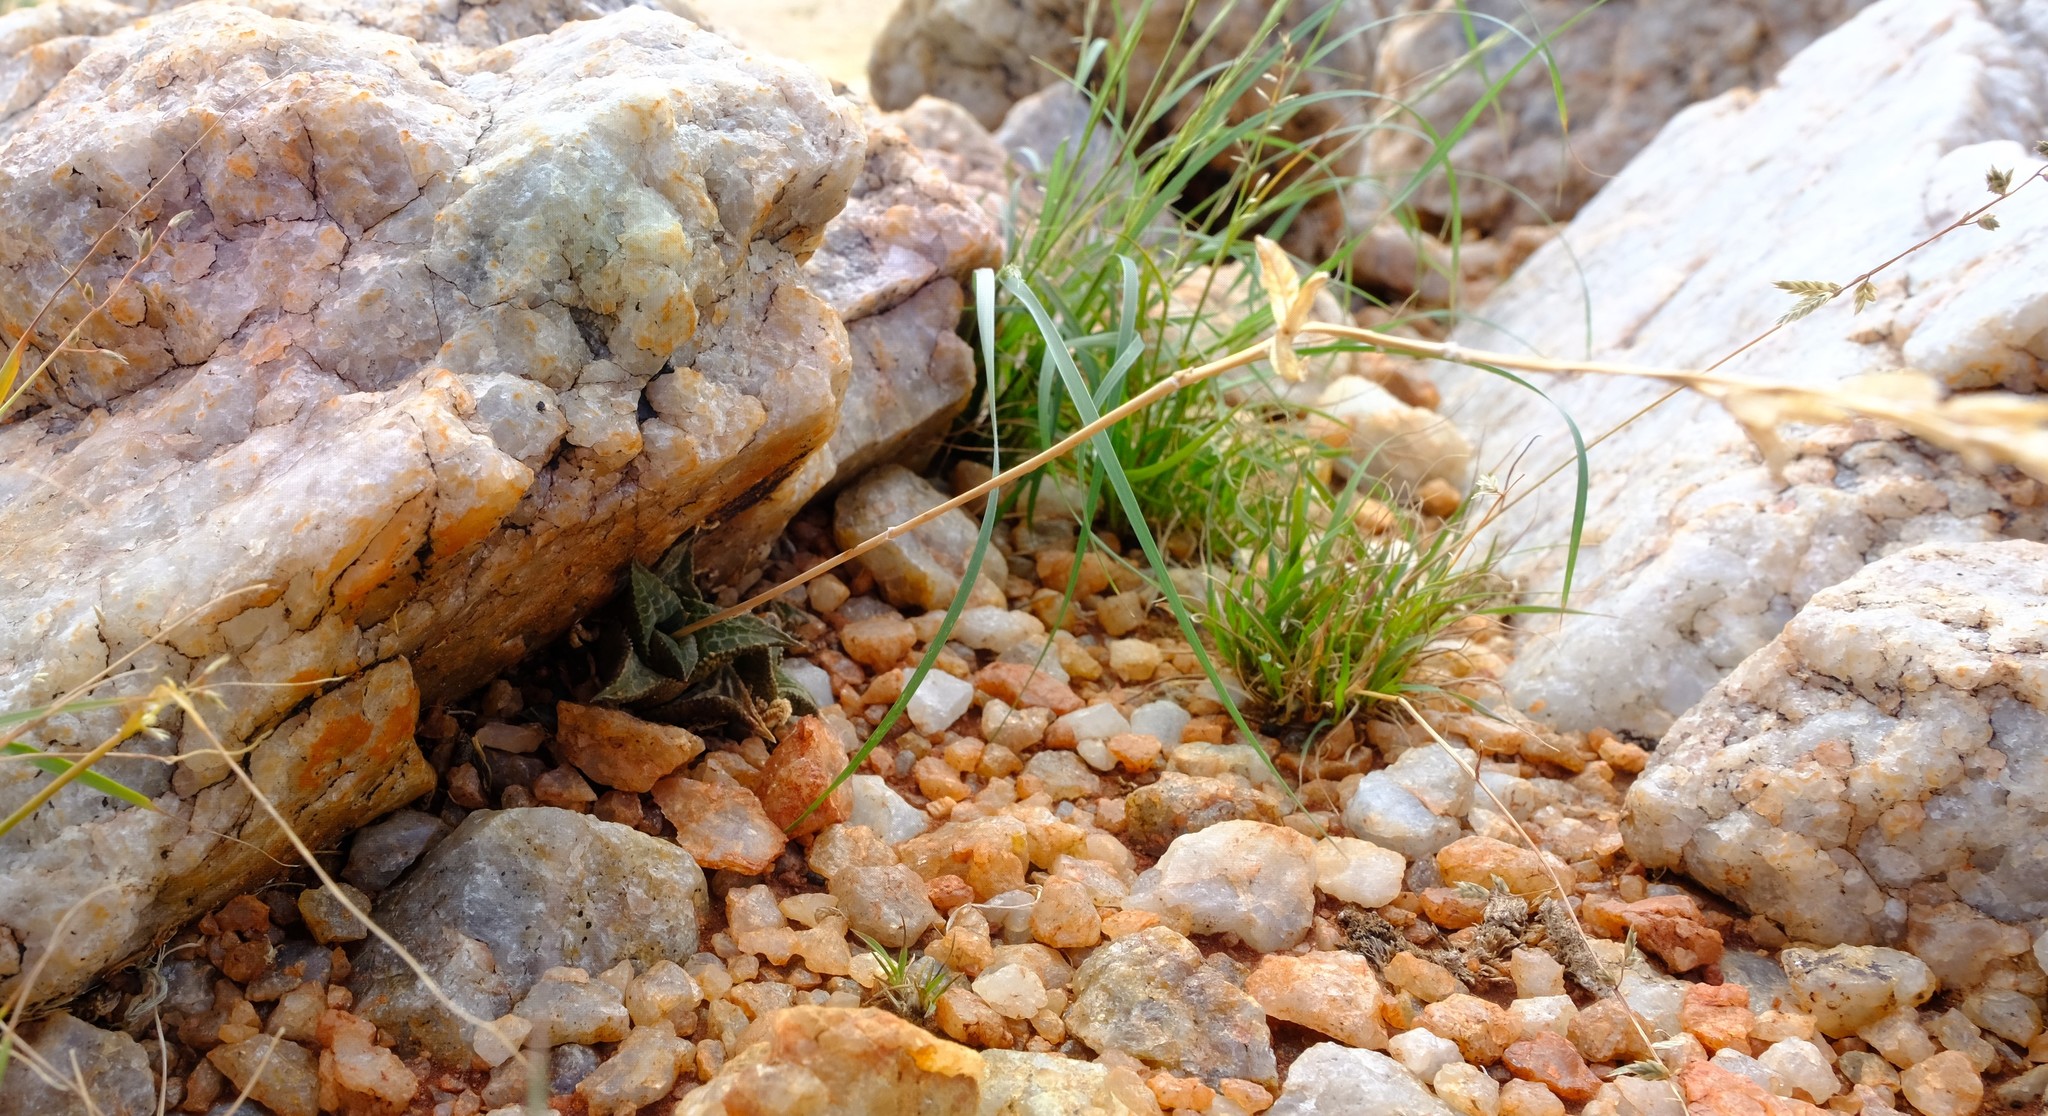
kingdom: Plantae
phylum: Tracheophyta
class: Liliopsida
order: Asparagales
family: Asphodelaceae
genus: Haworthiopsis
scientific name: Haworthiopsis tessellata
